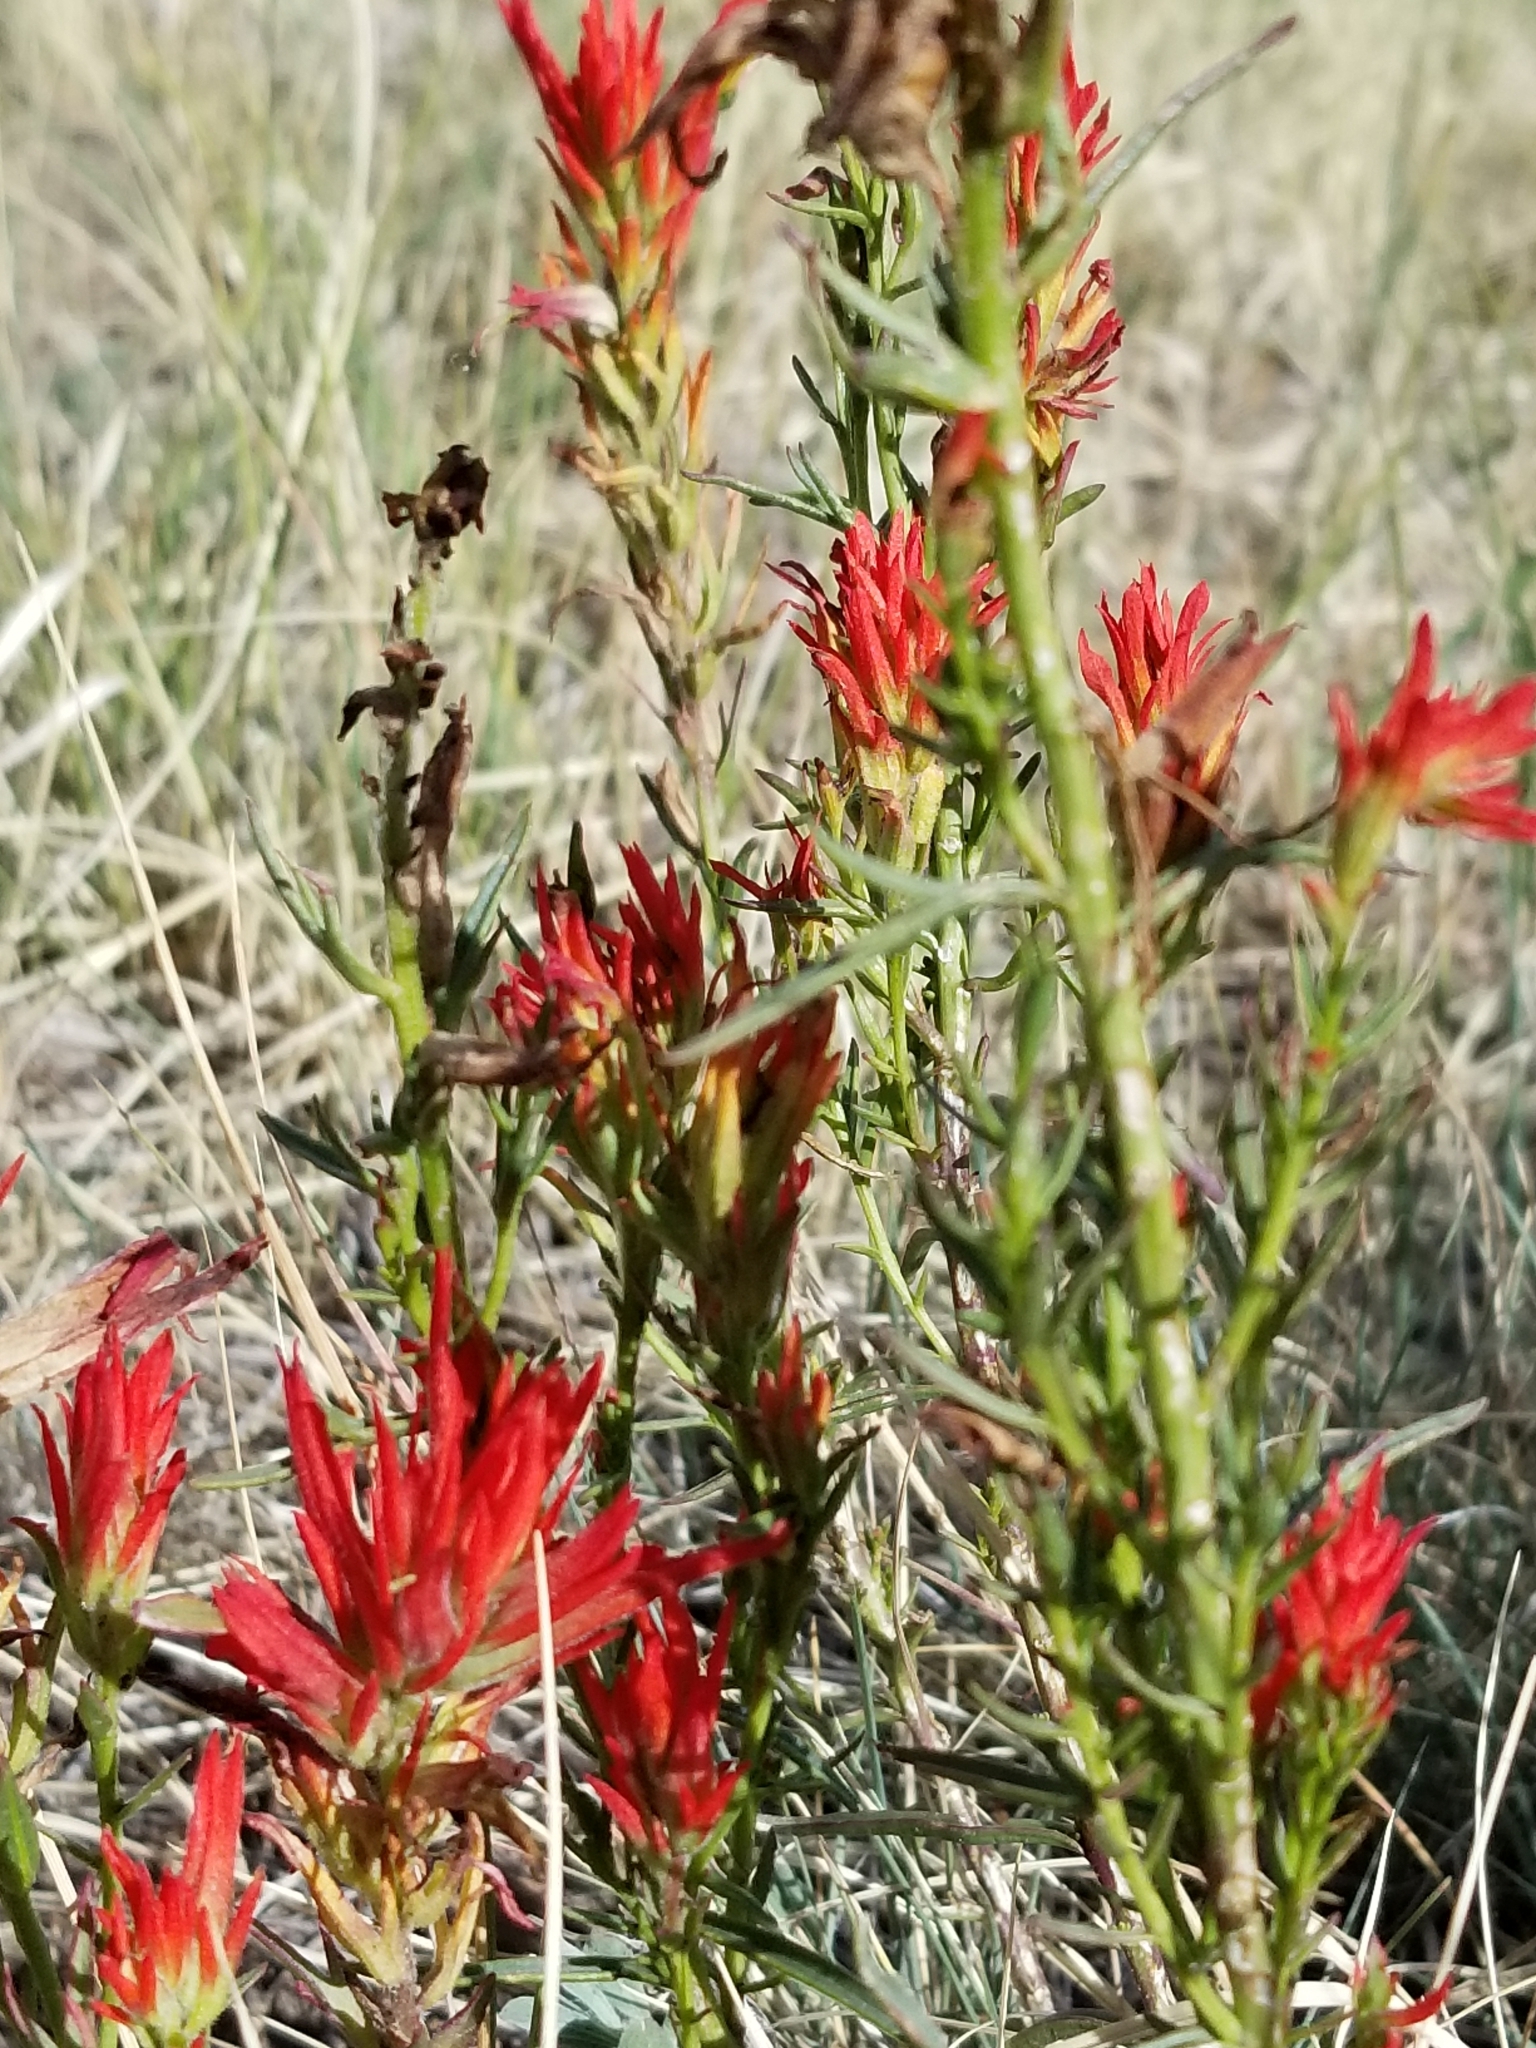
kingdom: Plantae
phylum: Tracheophyta
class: Magnoliopsida
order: Lamiales
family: Orobanchaceae
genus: Castilleja
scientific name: Castilleja linariifolia
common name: Wyoming paintbrush
